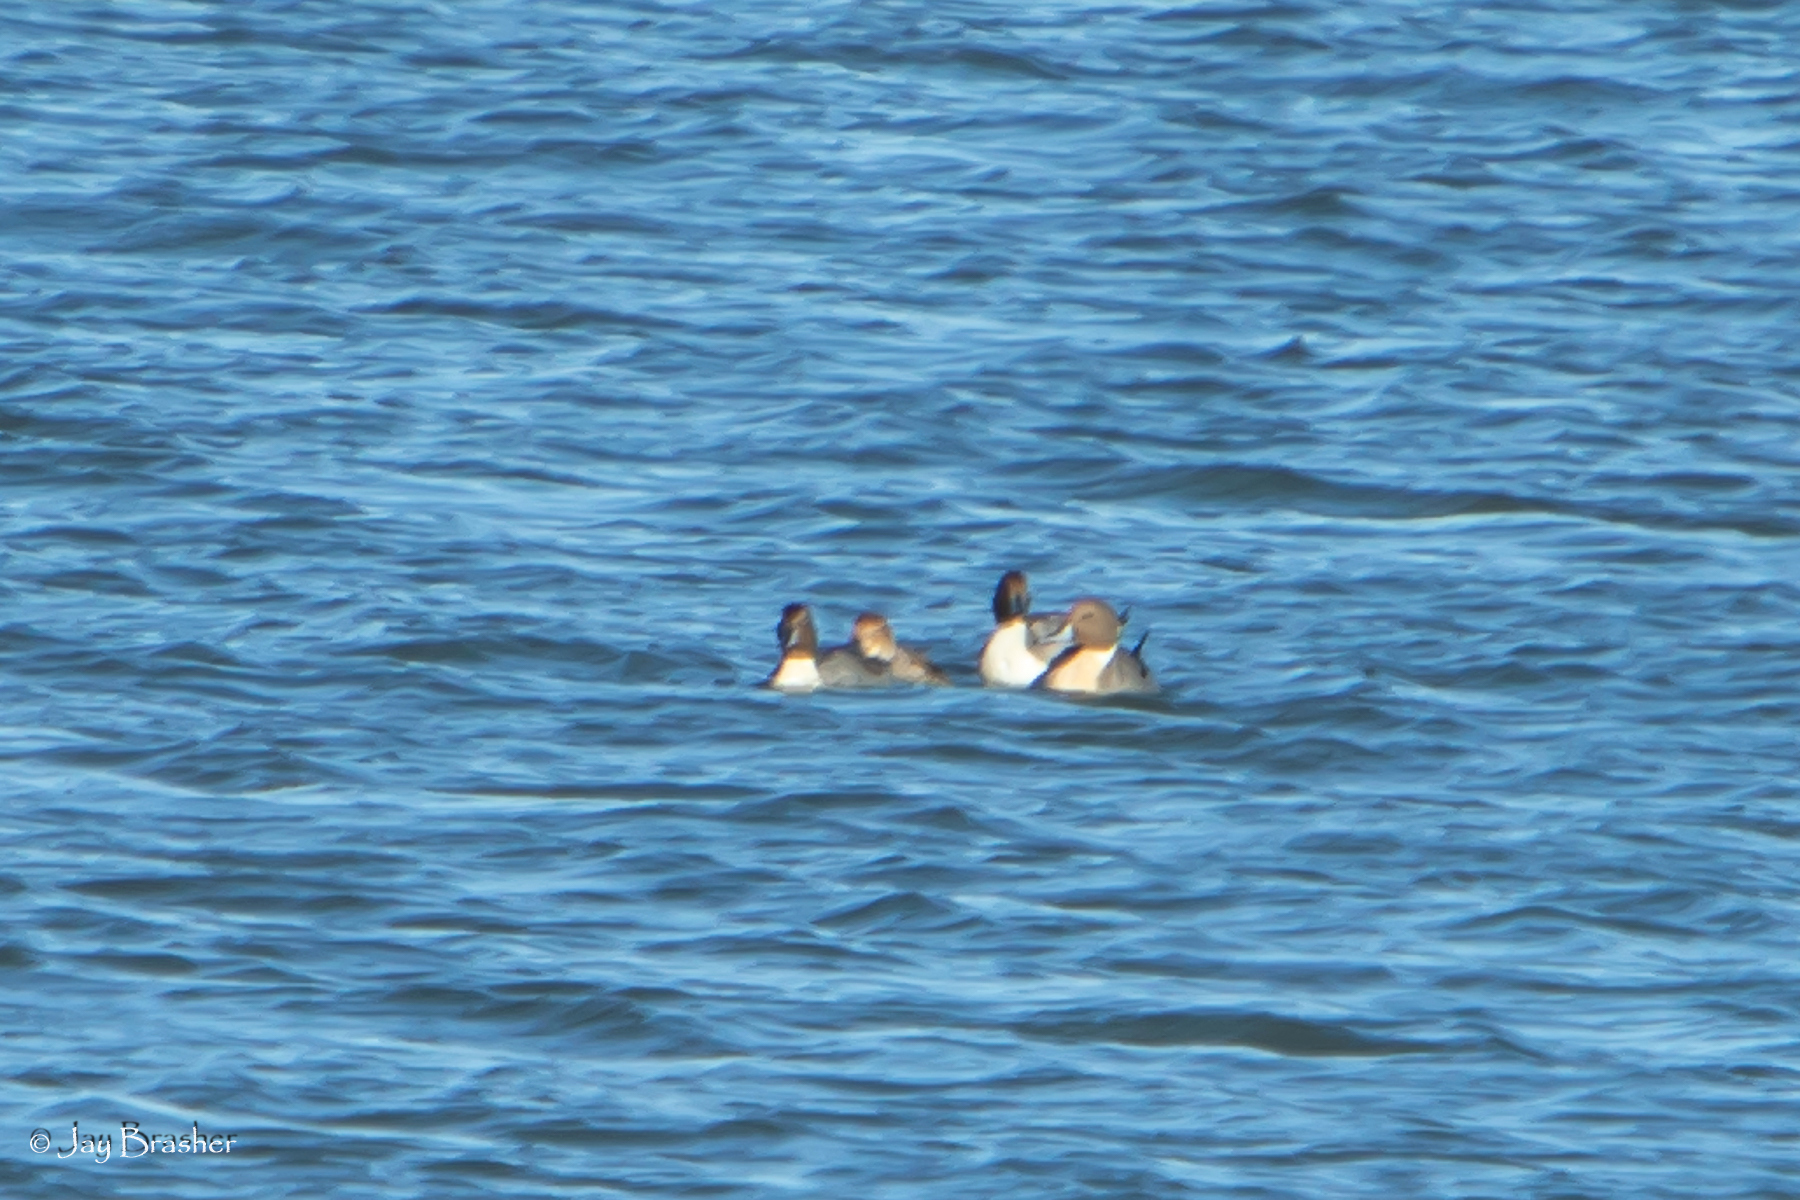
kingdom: Animalia
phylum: Chordata
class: Aves
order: Anseriformes
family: Anatidae
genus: Anas
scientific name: Anas acuta
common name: Northern pintail
